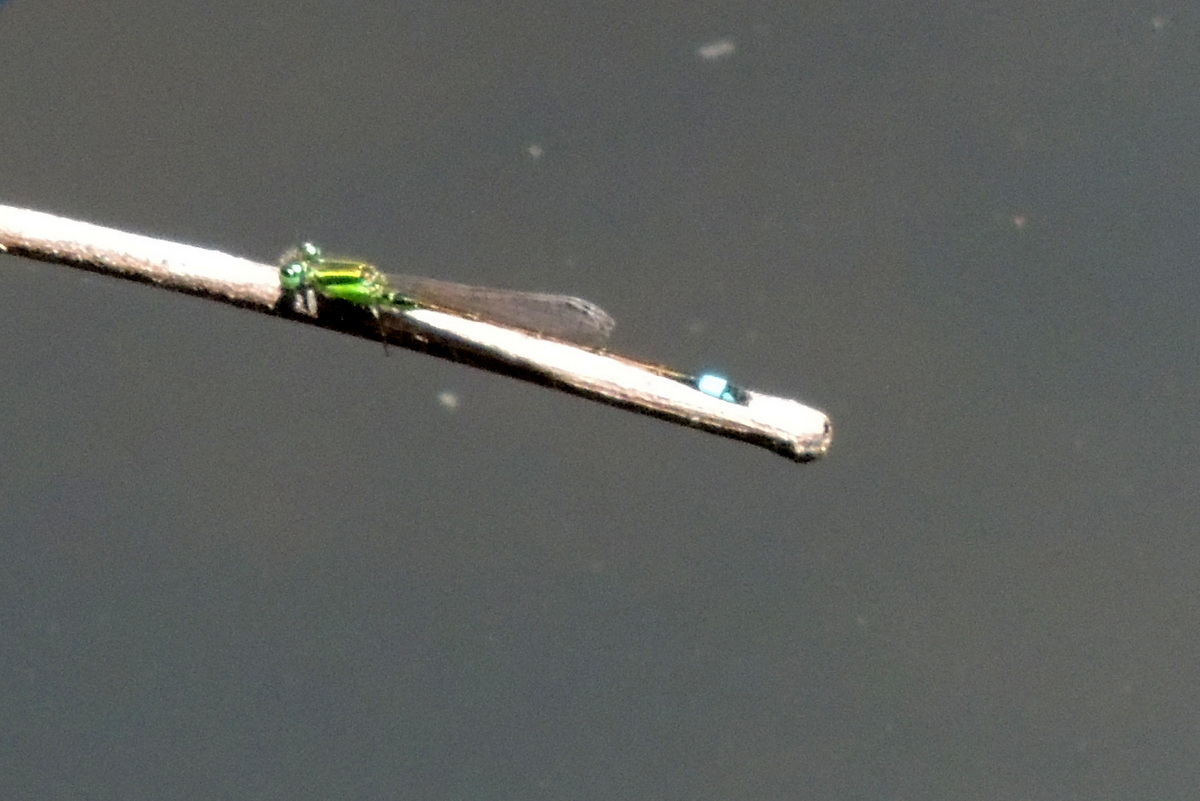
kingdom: Animalia
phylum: Arthropoda
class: Insecta
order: Odonata
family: Coenagrionidae
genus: Ischnura
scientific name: Ischnura ramburii
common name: Rambur's forktail
